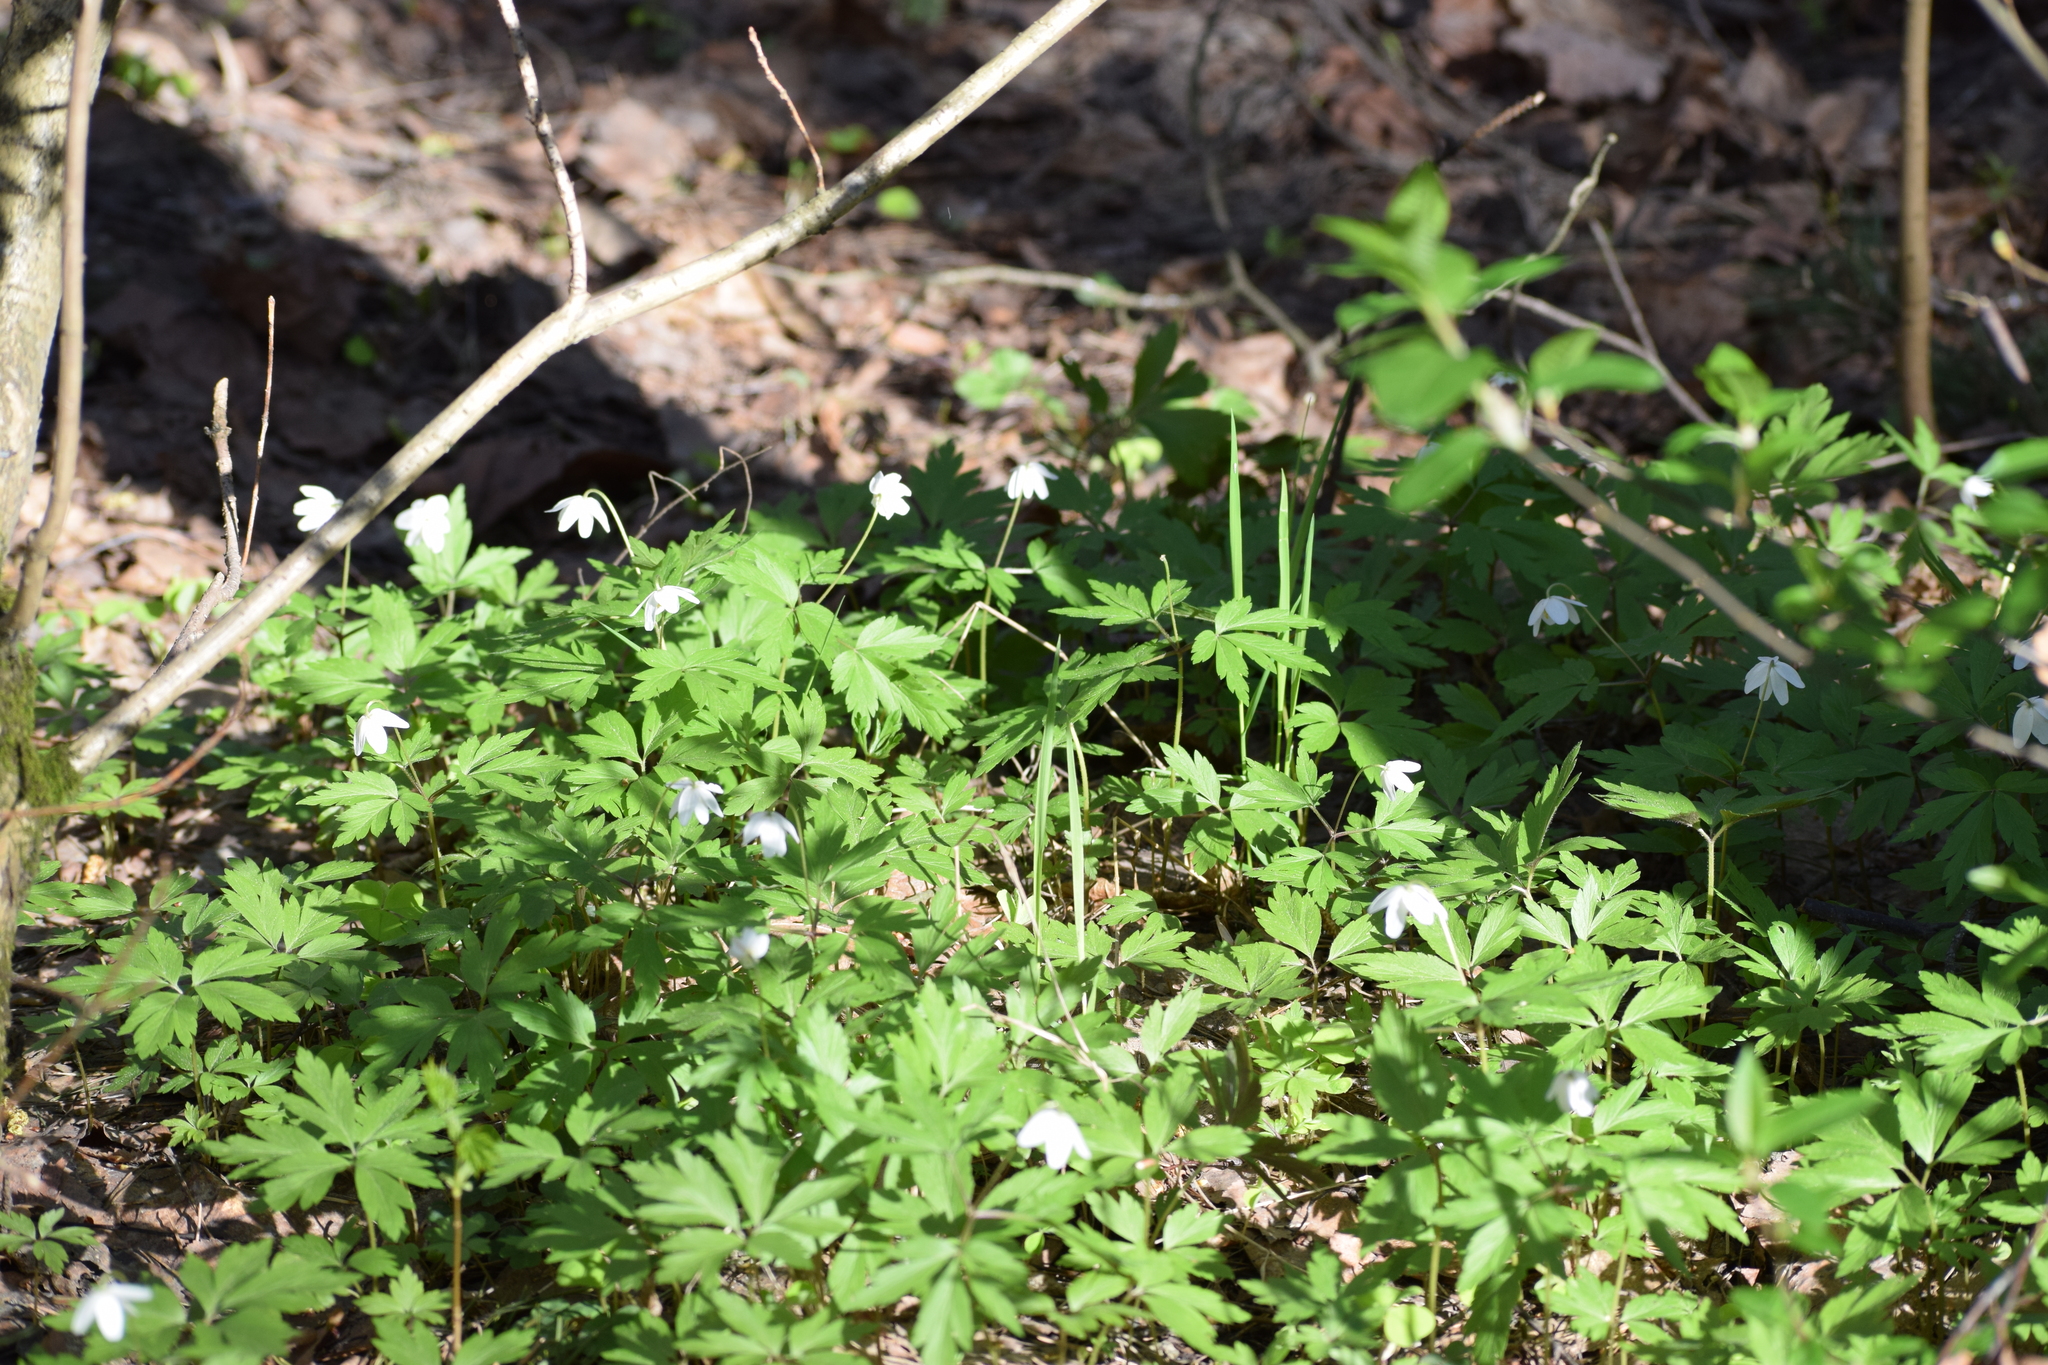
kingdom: Plantae
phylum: Tracheophyta
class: Magnoliopsida
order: Ranunculales
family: Ranunculaceae
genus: Anemone
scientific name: Anemone nemorosa
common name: Wood anemone
